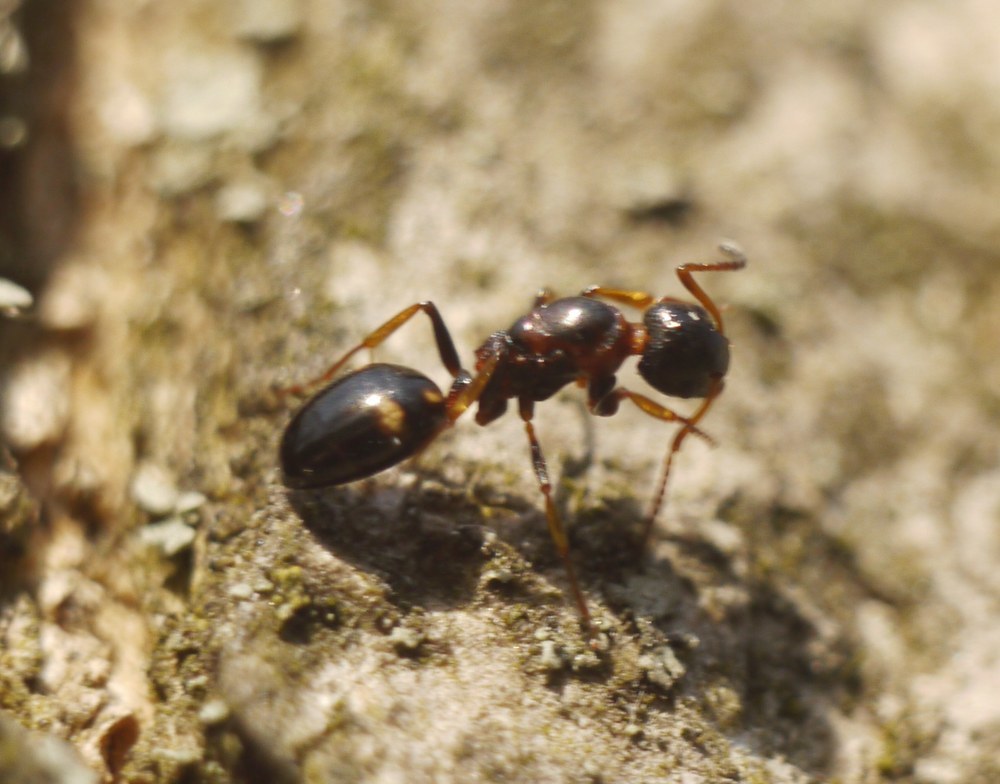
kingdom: Animalia
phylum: Arthropoda
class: Insecta
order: Hymenoptera
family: Formicidae
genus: Dolichoderus
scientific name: Dolichoderus quadripunctatus
